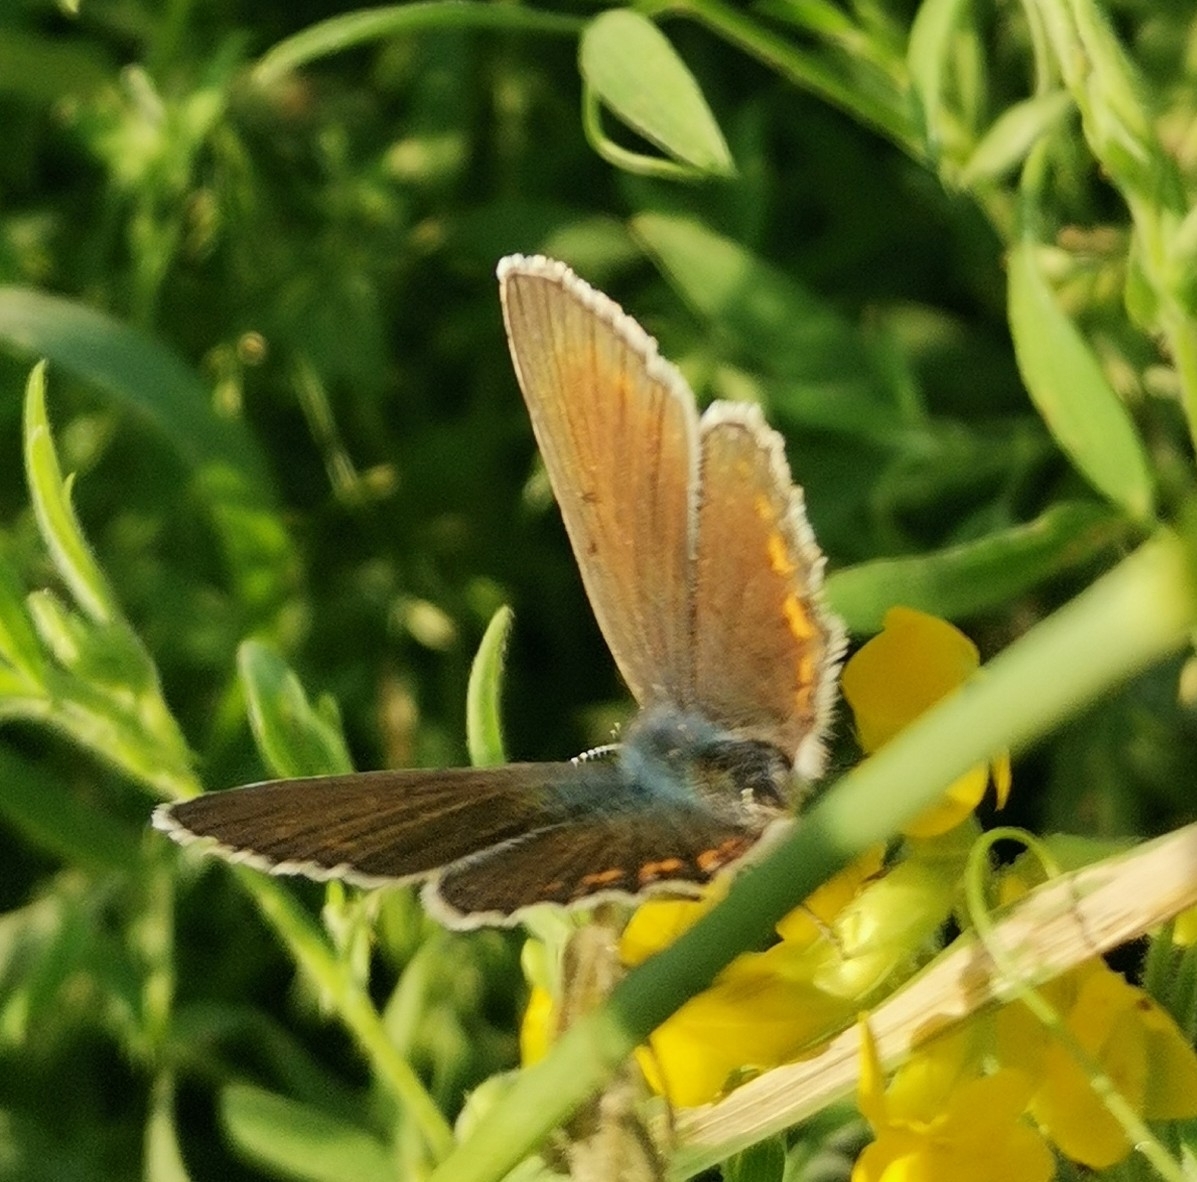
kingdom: Animalia
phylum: Arthropoda
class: Insecta
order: Lepidoptera
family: Lycaenidae
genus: Plebejus
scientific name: Plebejus amanda
